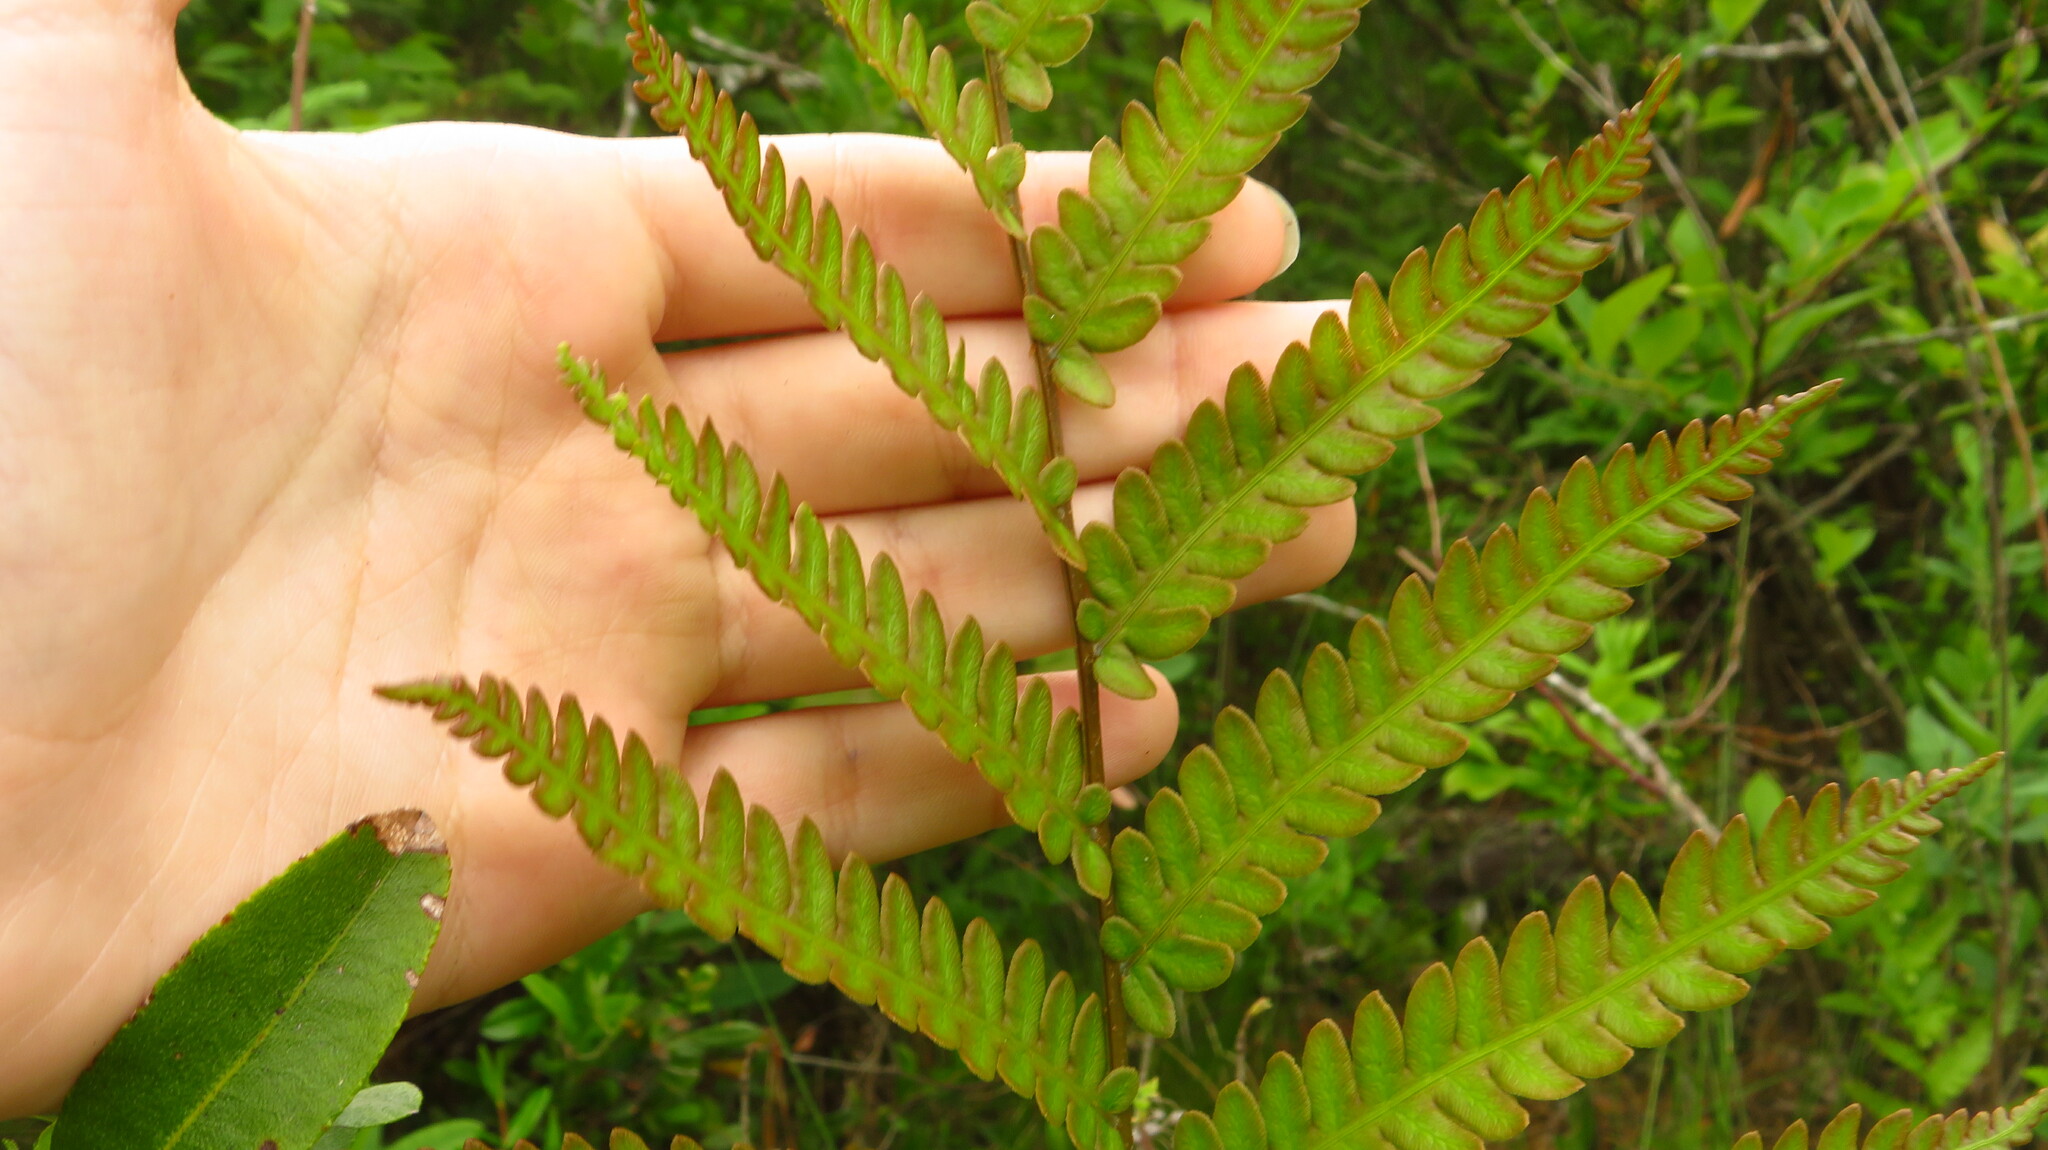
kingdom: Plantae
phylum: Tracheophyta
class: Polypodiopsida
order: Polypodiales
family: Blechnaceae
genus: Anchistea
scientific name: Anchistea virginica
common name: Virginia chain fern
